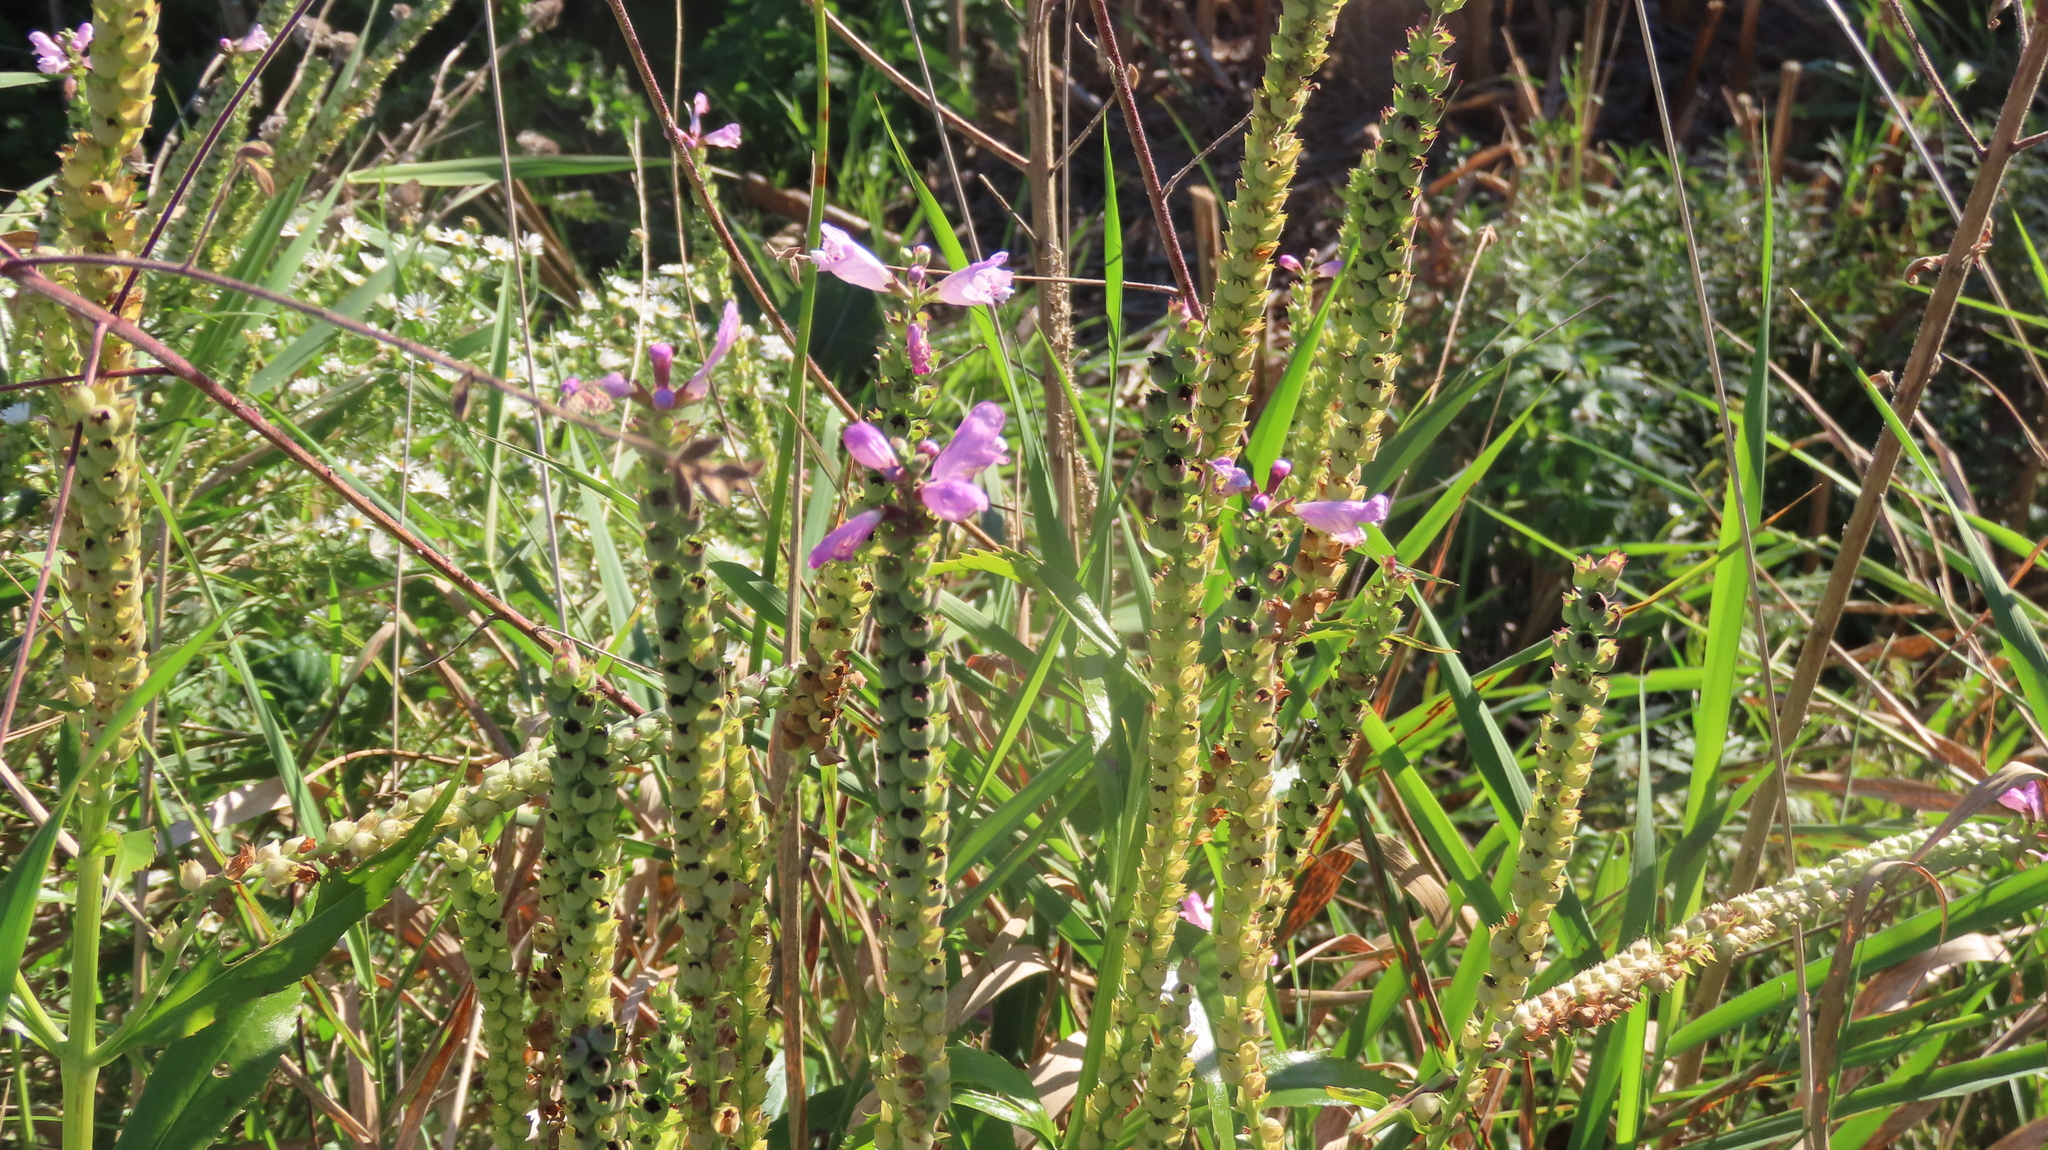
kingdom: Plantae
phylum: Tracheophyta
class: Magnoliopsida
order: Lamiales
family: Lamiaceae
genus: Physostegia
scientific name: Physostegia virginiana
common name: Obedient-plant
